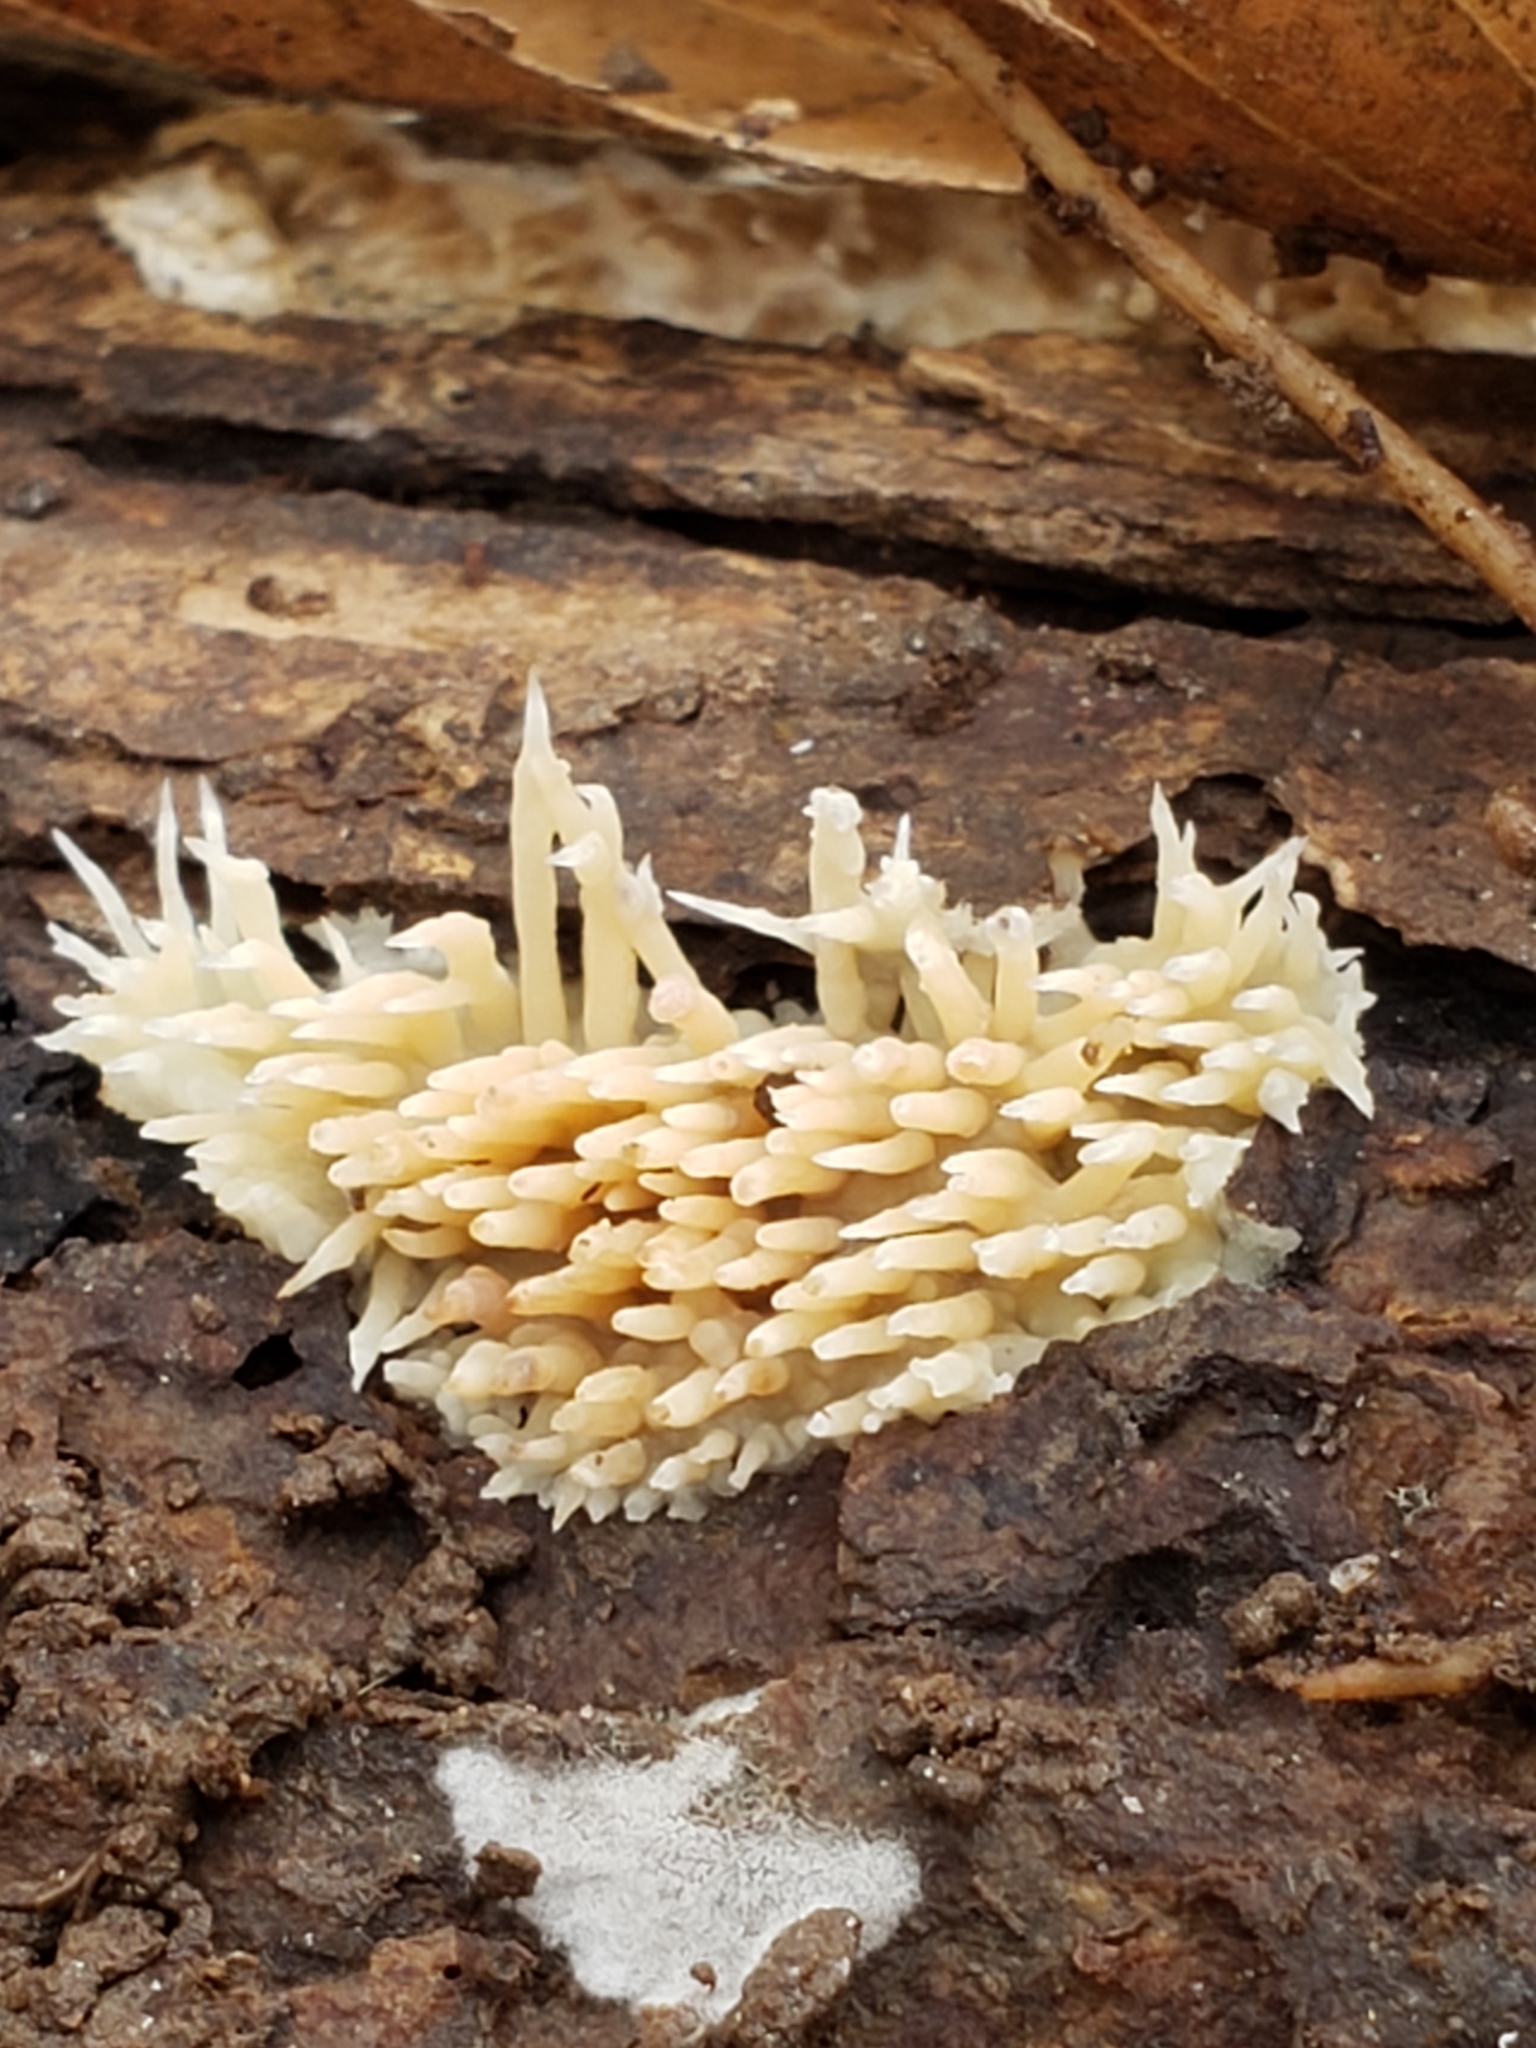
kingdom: Fungi
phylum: Basidiomycota
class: Agaricomycetes
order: Agaricales
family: Radulomycetaceae
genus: Radulomyces
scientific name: Radulomyces copelandii
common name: Asian beauty
